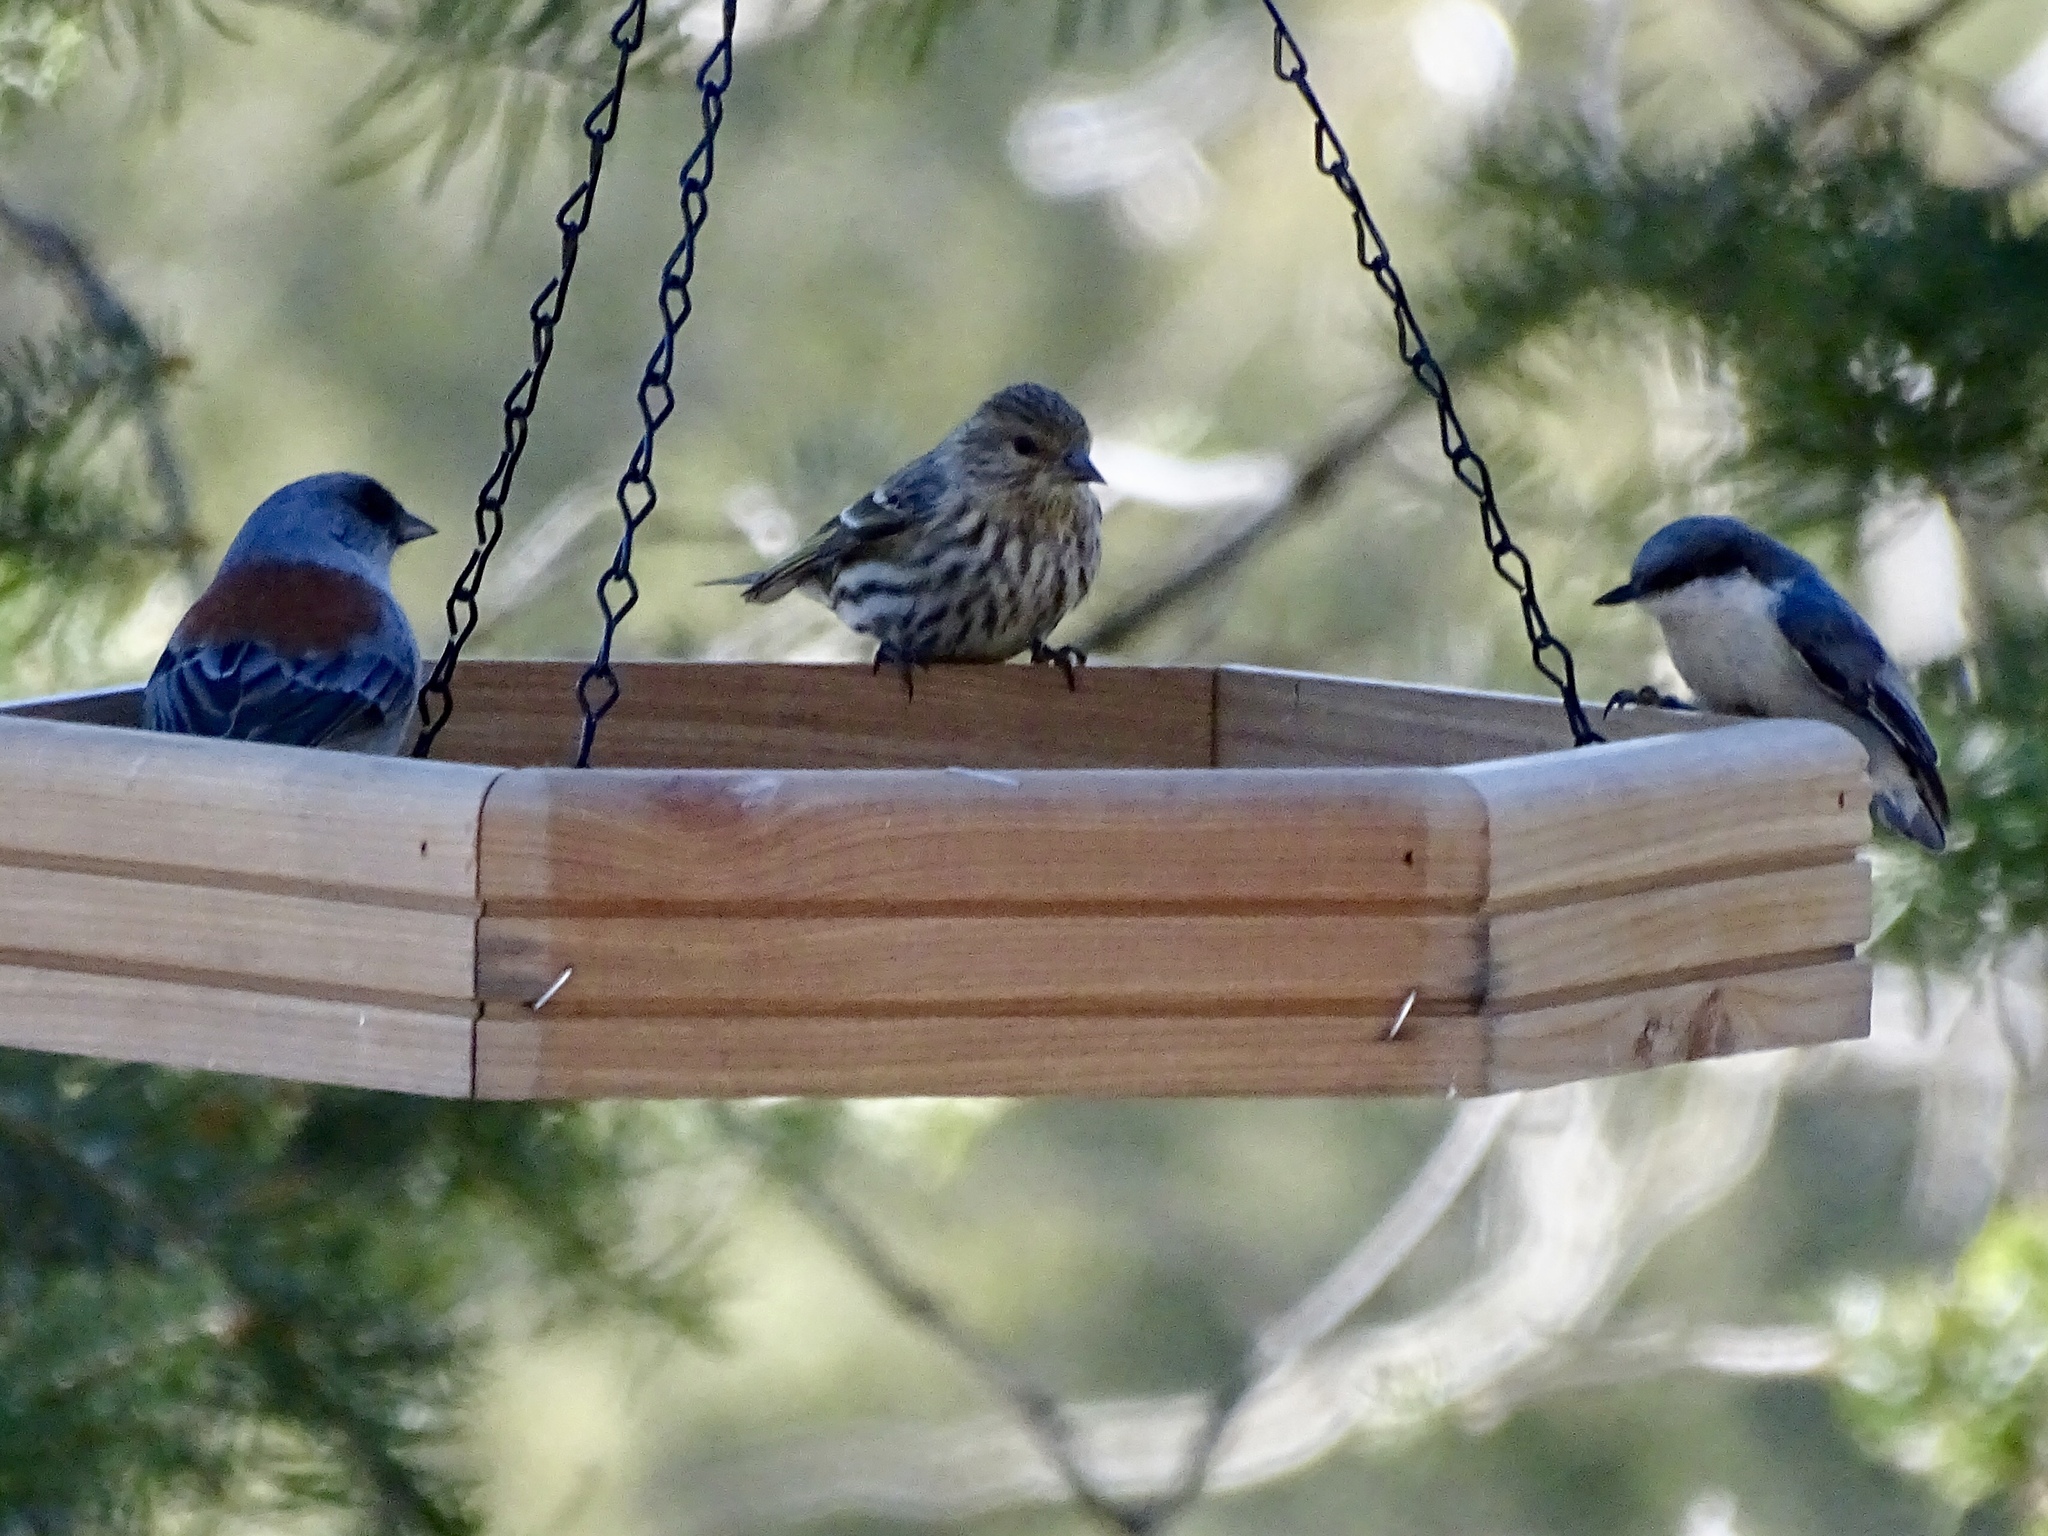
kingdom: Animalia
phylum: Chordata
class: Aves
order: Passeriformes
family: Sittidae
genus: Sitta
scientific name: Sitta pygmaea
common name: Pygmy nuthatch
